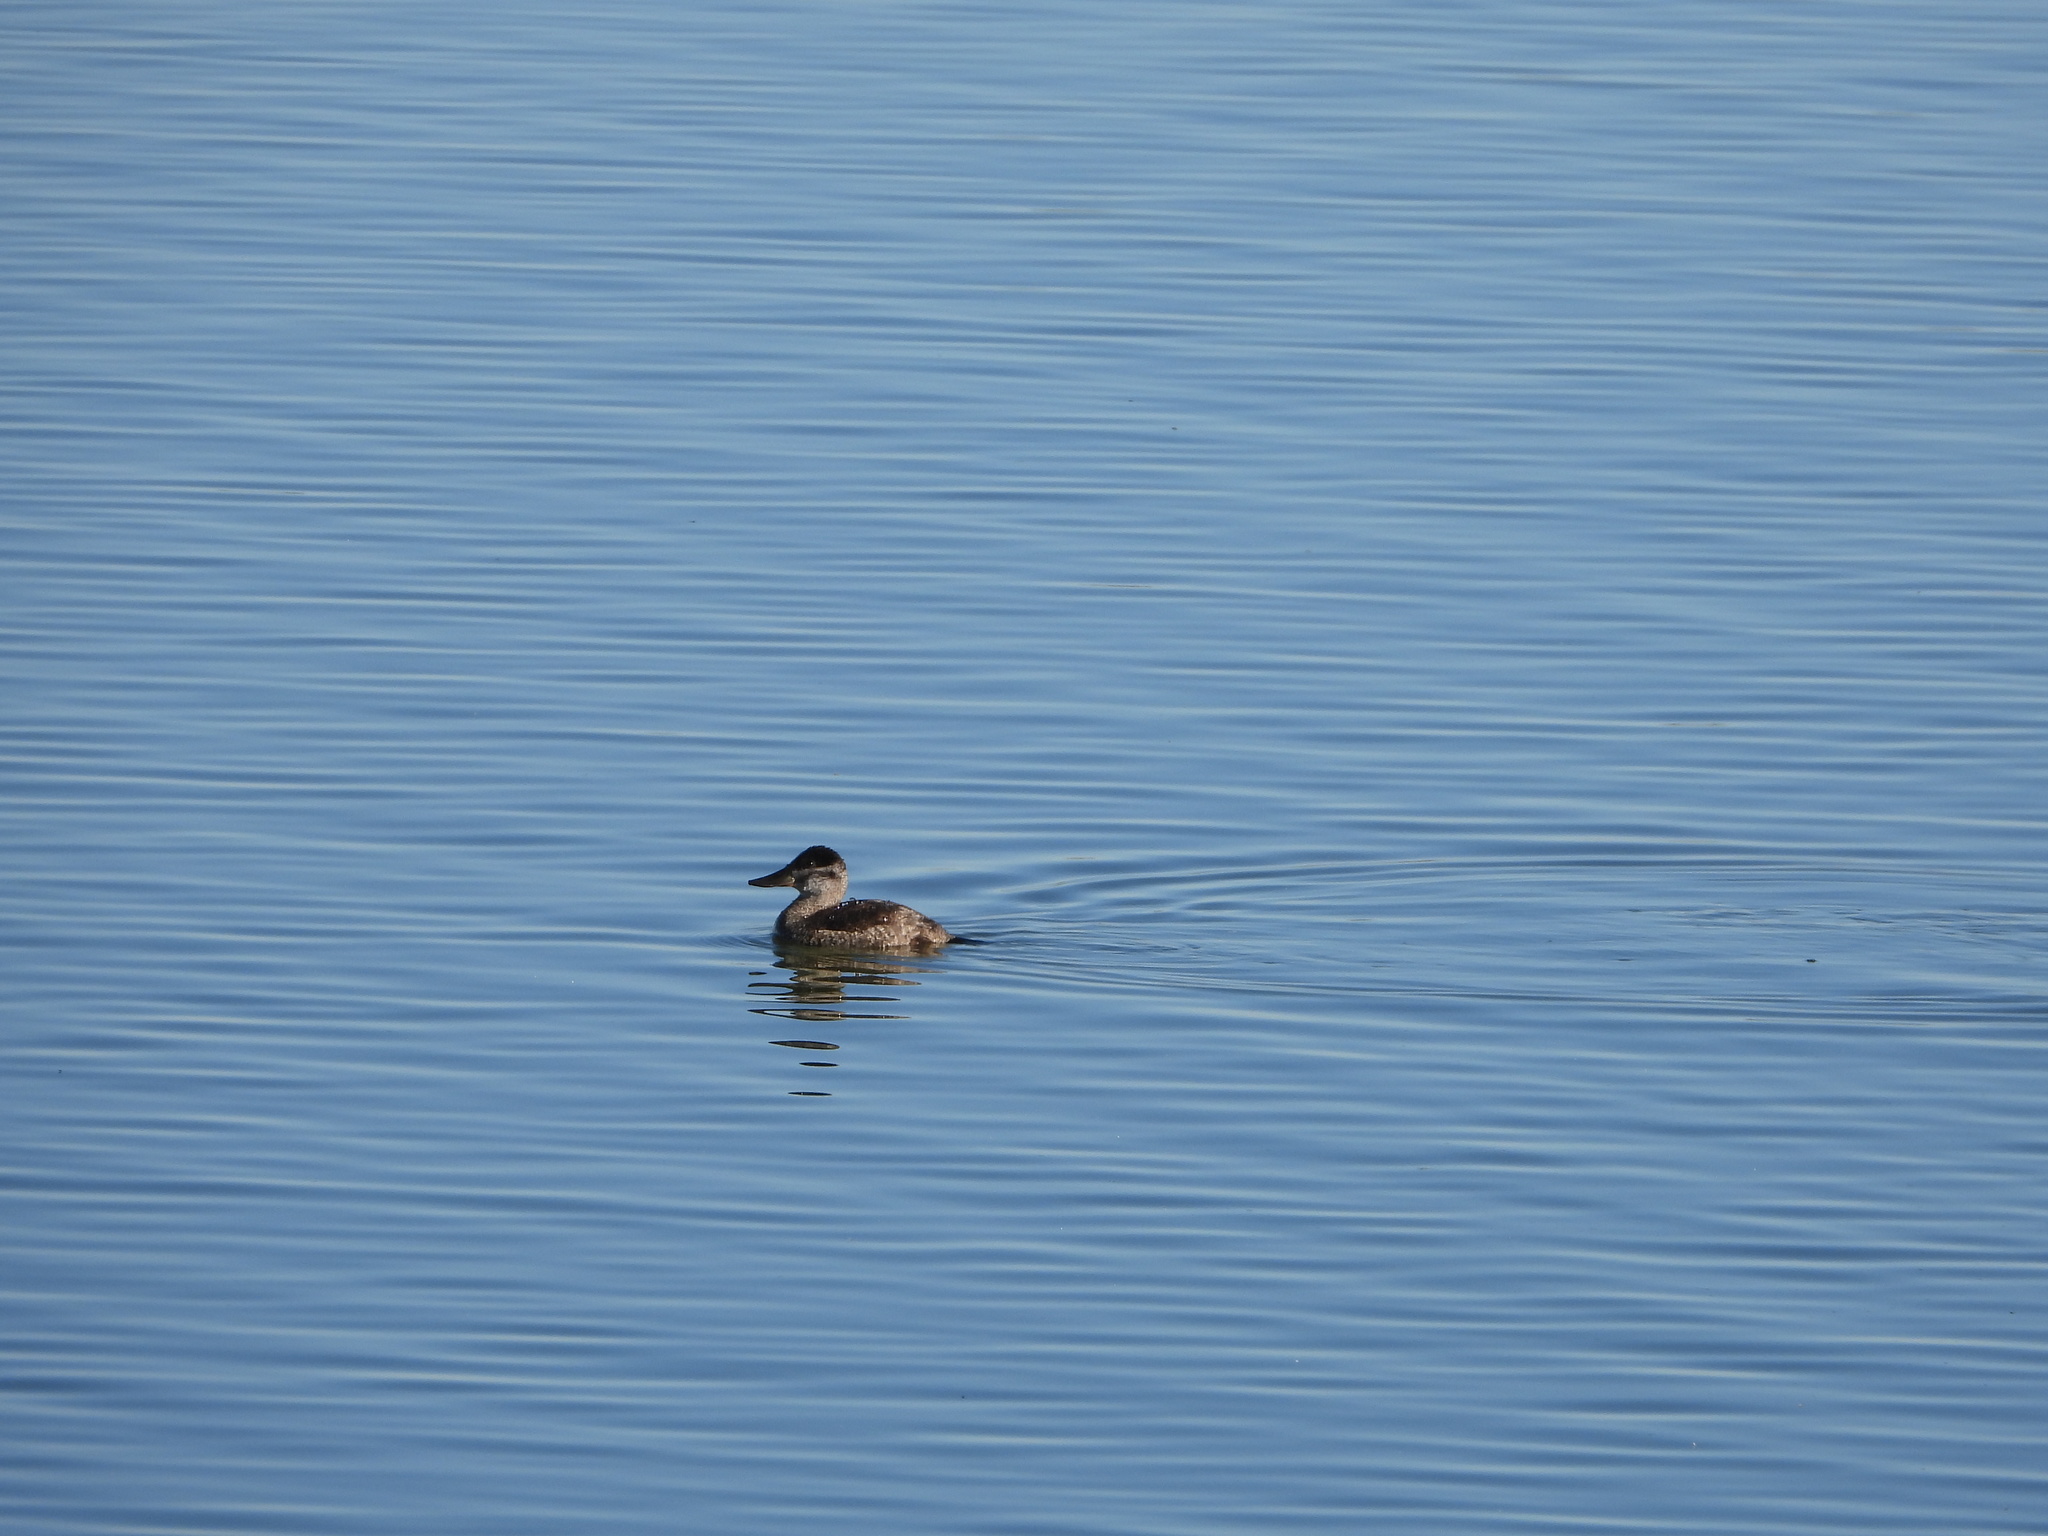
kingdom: Animalia
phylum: Chordata
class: Aves
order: Anseriformes
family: Anatidae
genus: Oxyura
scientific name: Oxyura jamaicensis
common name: Ruddy duck
